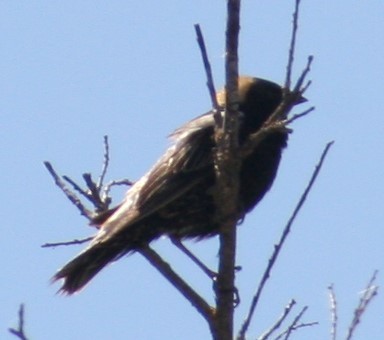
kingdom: Animalia
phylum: Chordata
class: Aves
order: Passeriformes
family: Icteridae
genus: Dolichonyx
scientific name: Dolichonyx oryzivorus
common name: Bobolink
